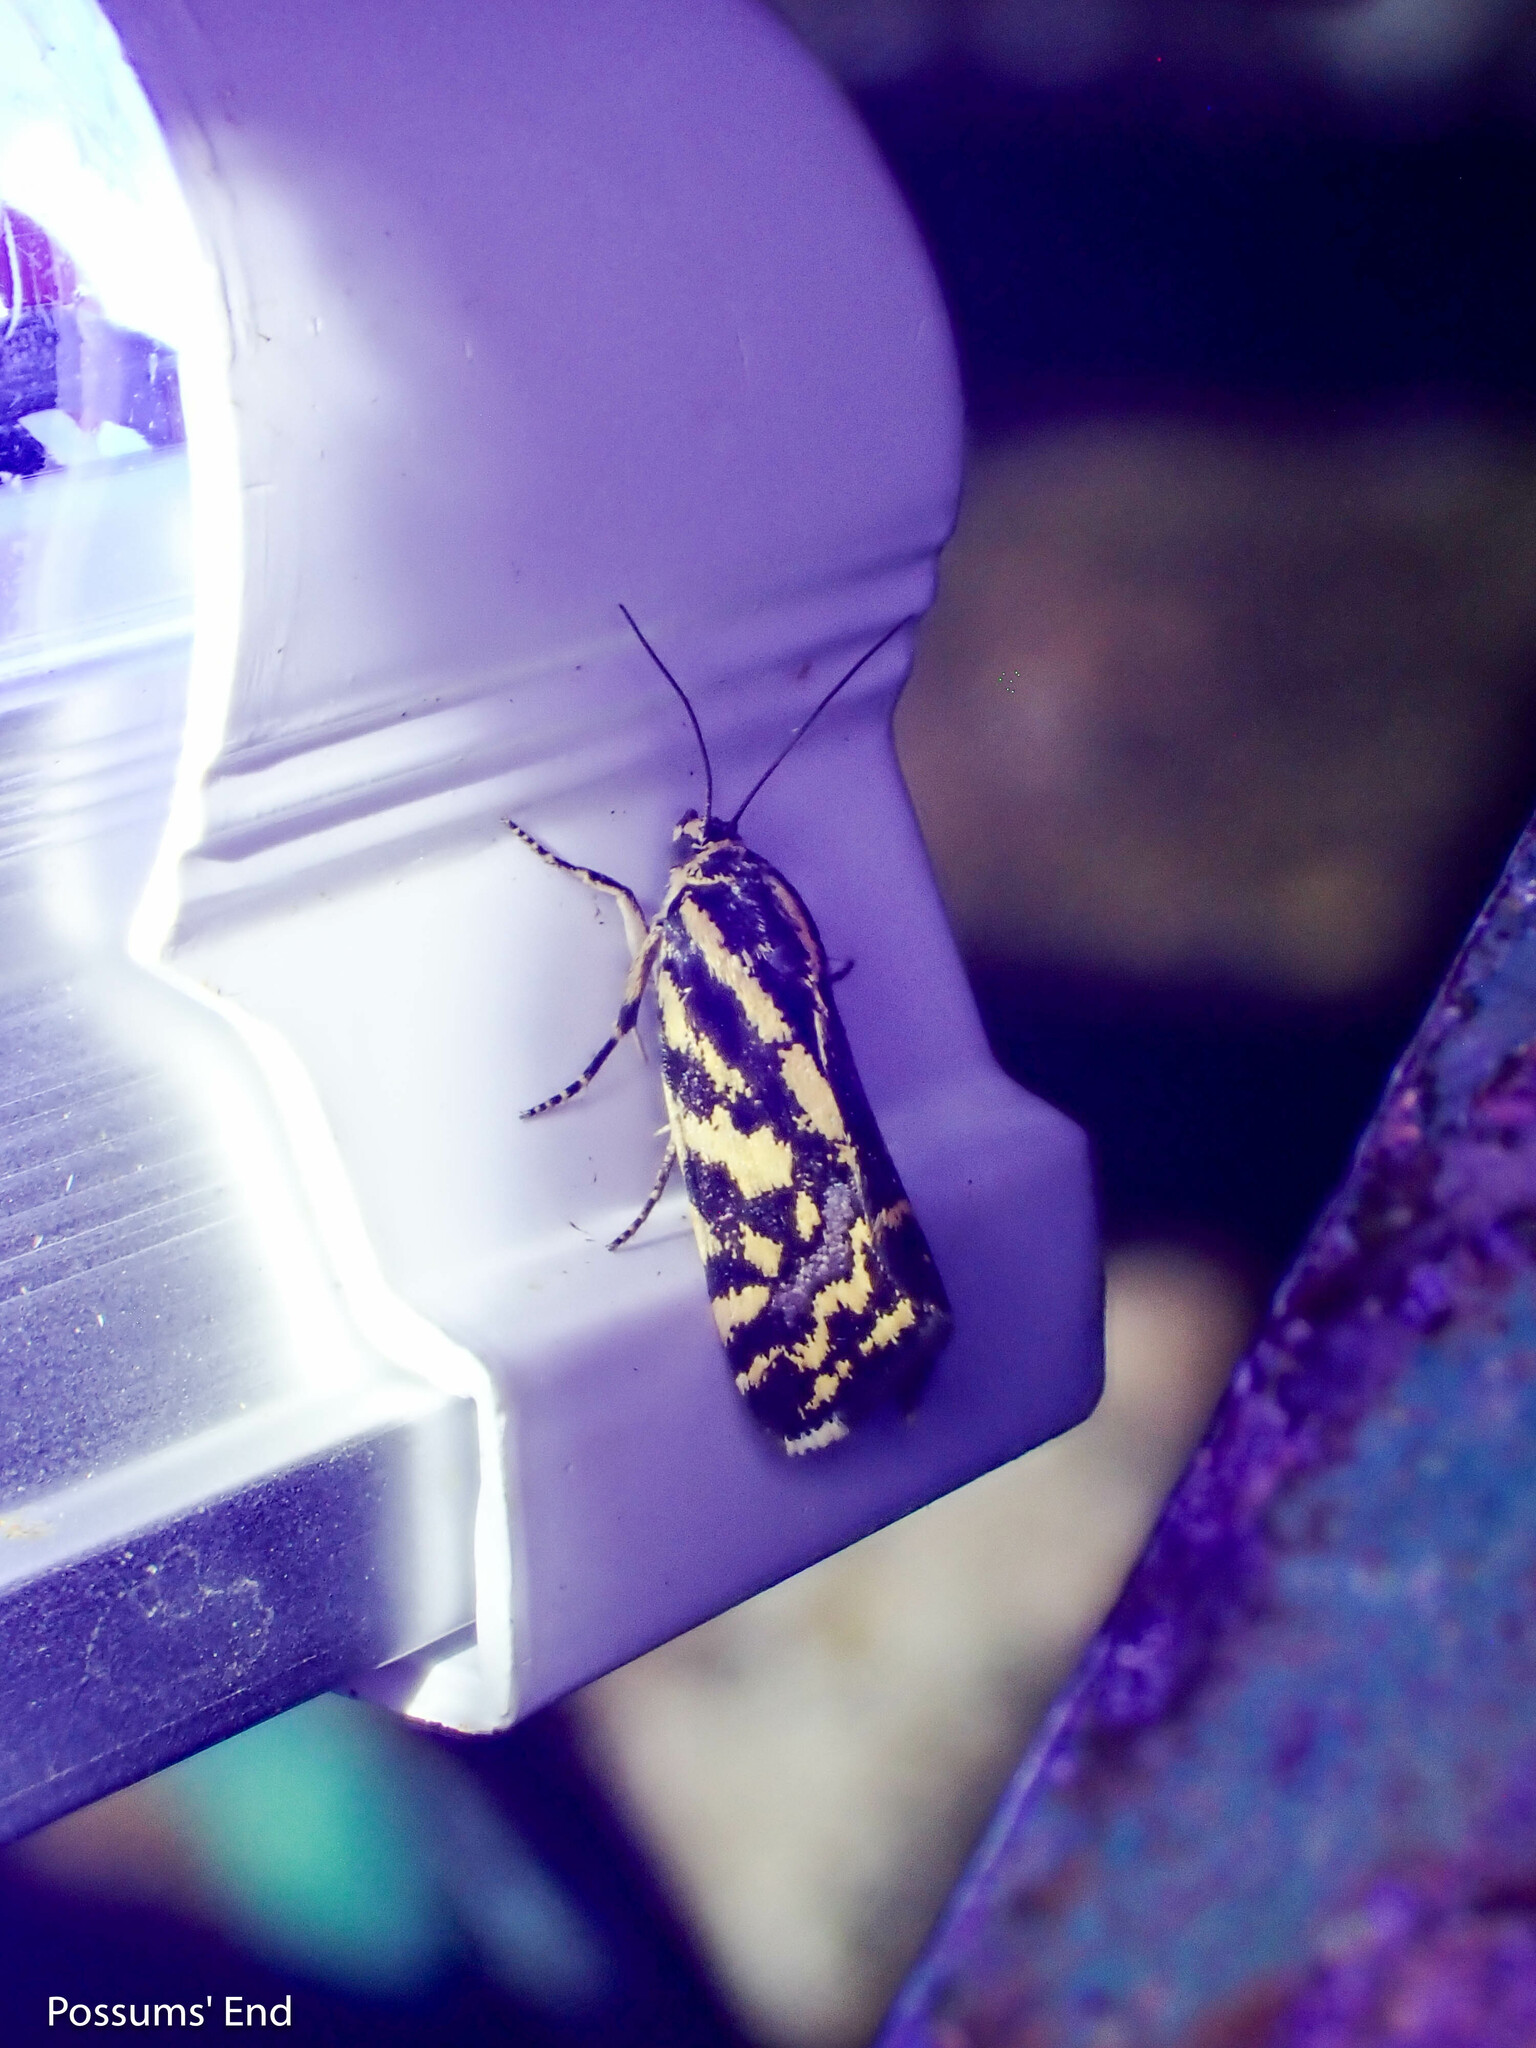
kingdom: Animalia
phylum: Arthropoda
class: Insecta
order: Lepidoptera
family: Noctuidae
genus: Acontia
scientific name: Acontia trabealis
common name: Spotted sulphur
